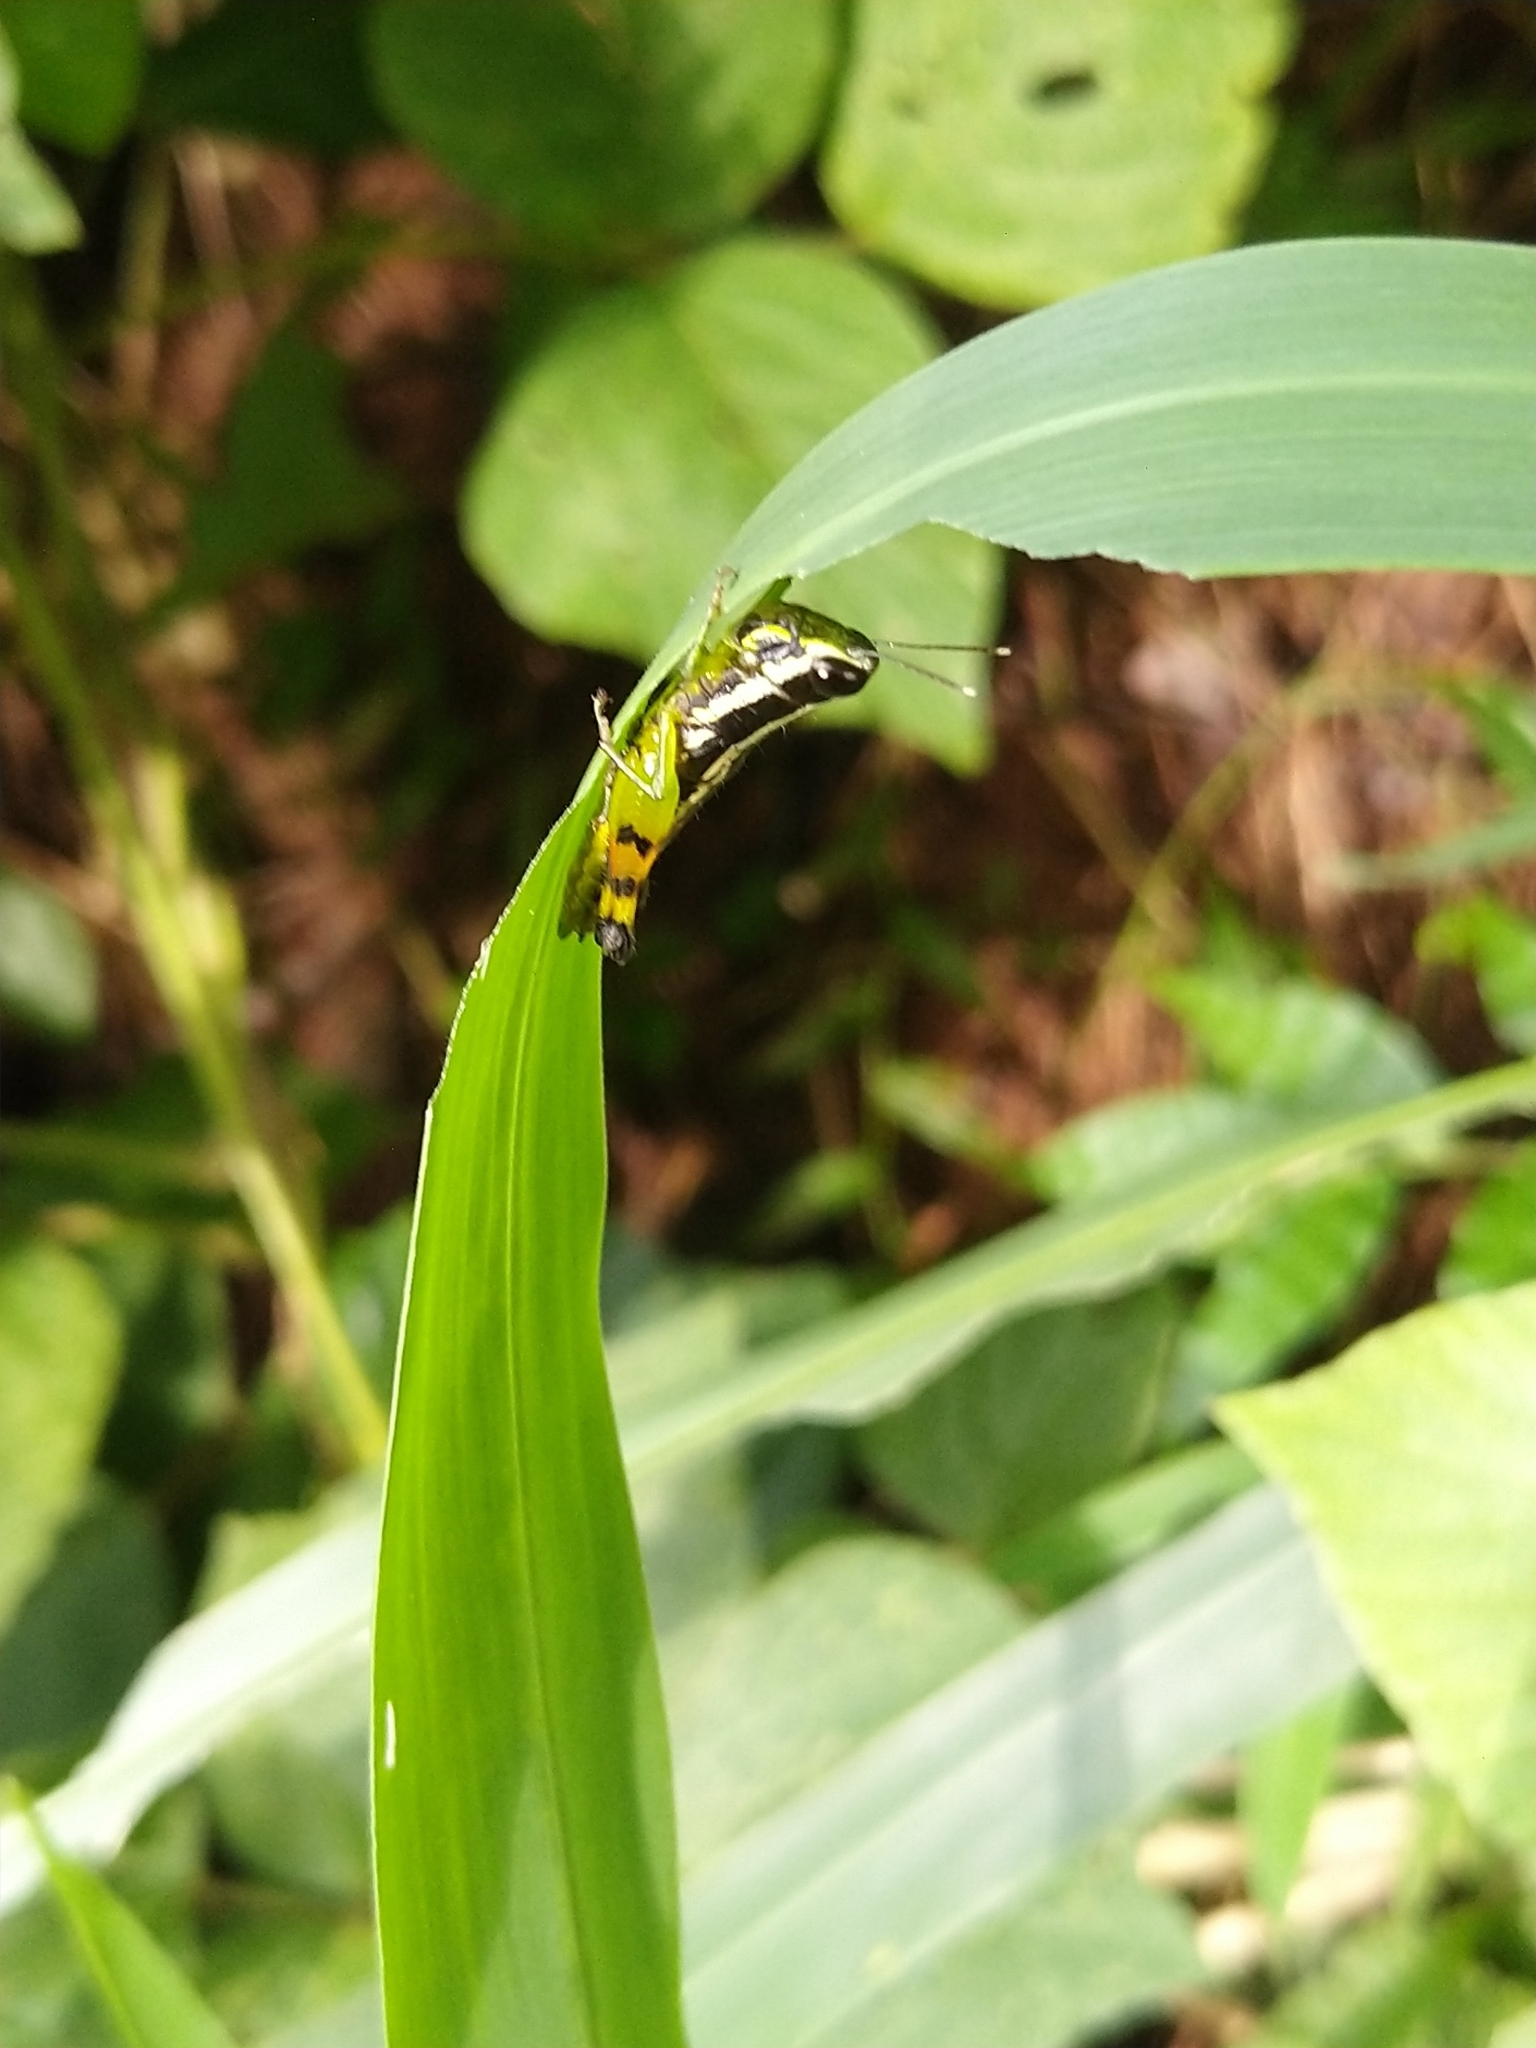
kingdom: Animalia
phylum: Arthropoda
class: Insecta
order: Orthoptera
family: Acrididae
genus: Chitaura
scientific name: Chitaura indica
